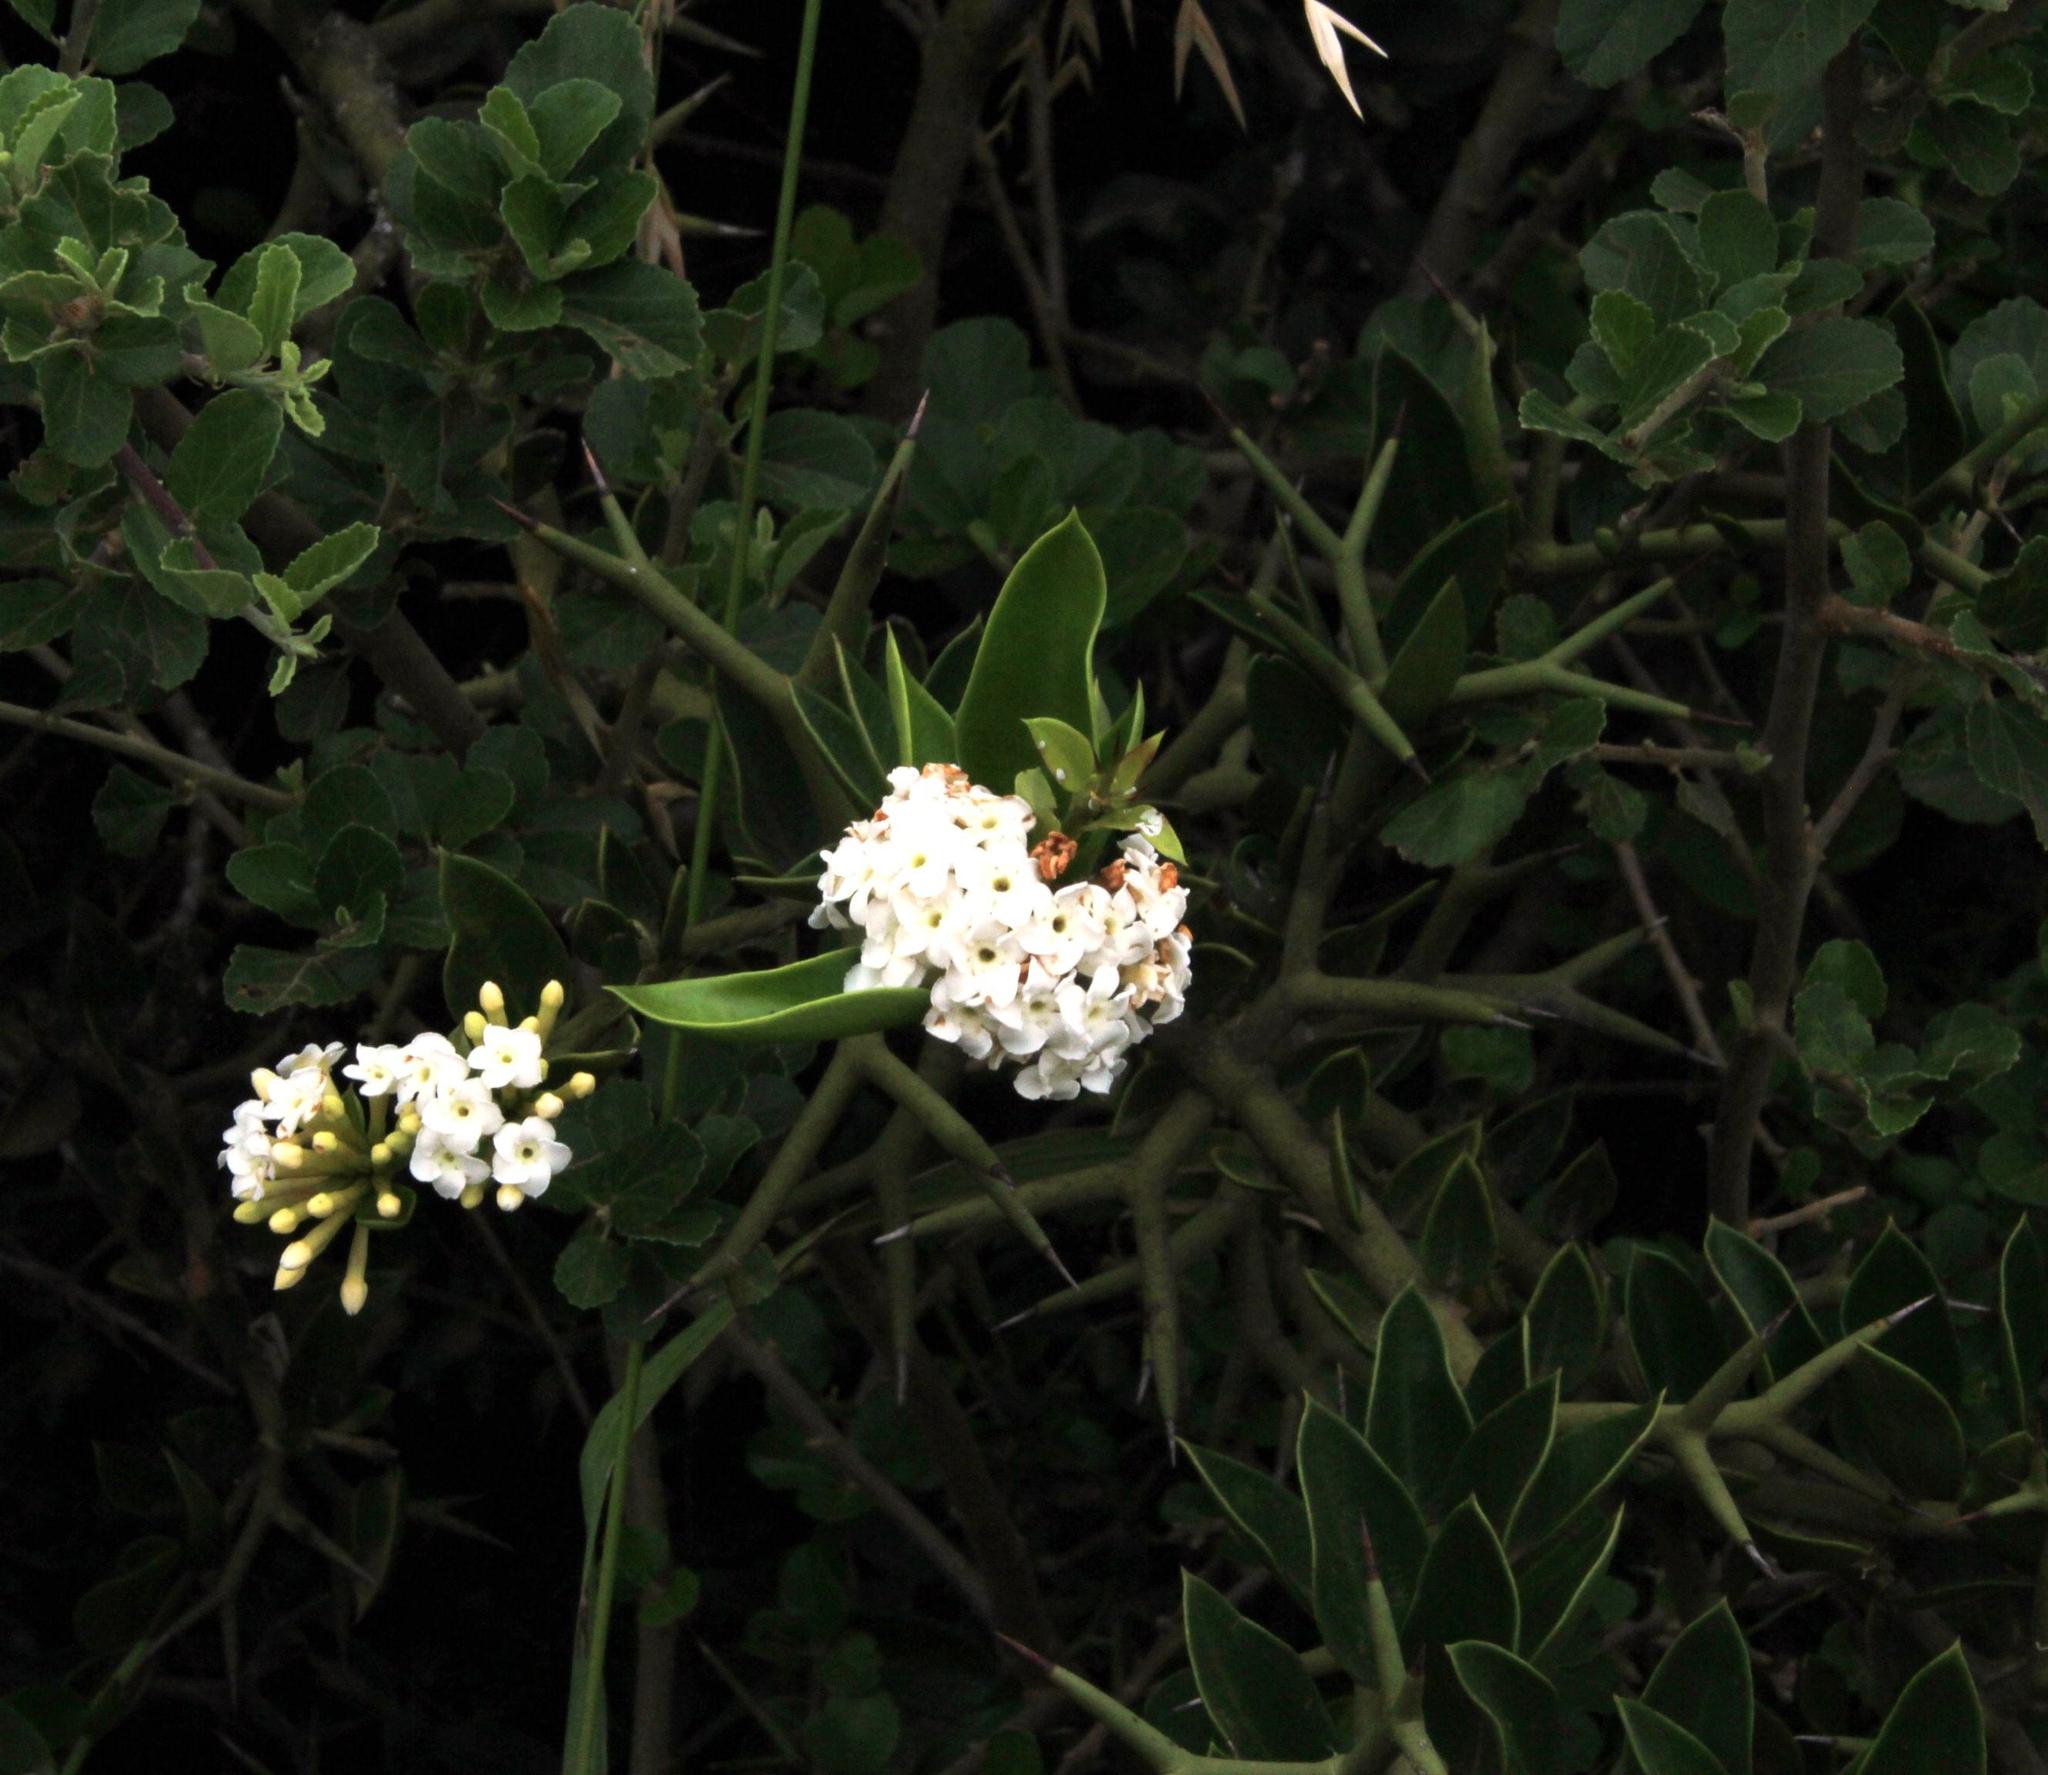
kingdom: Plantae
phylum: Tracheophyta
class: Magnoliopsida
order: Gentianales
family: Apocynaceae
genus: Carissa
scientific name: Carissa haematocarpa
